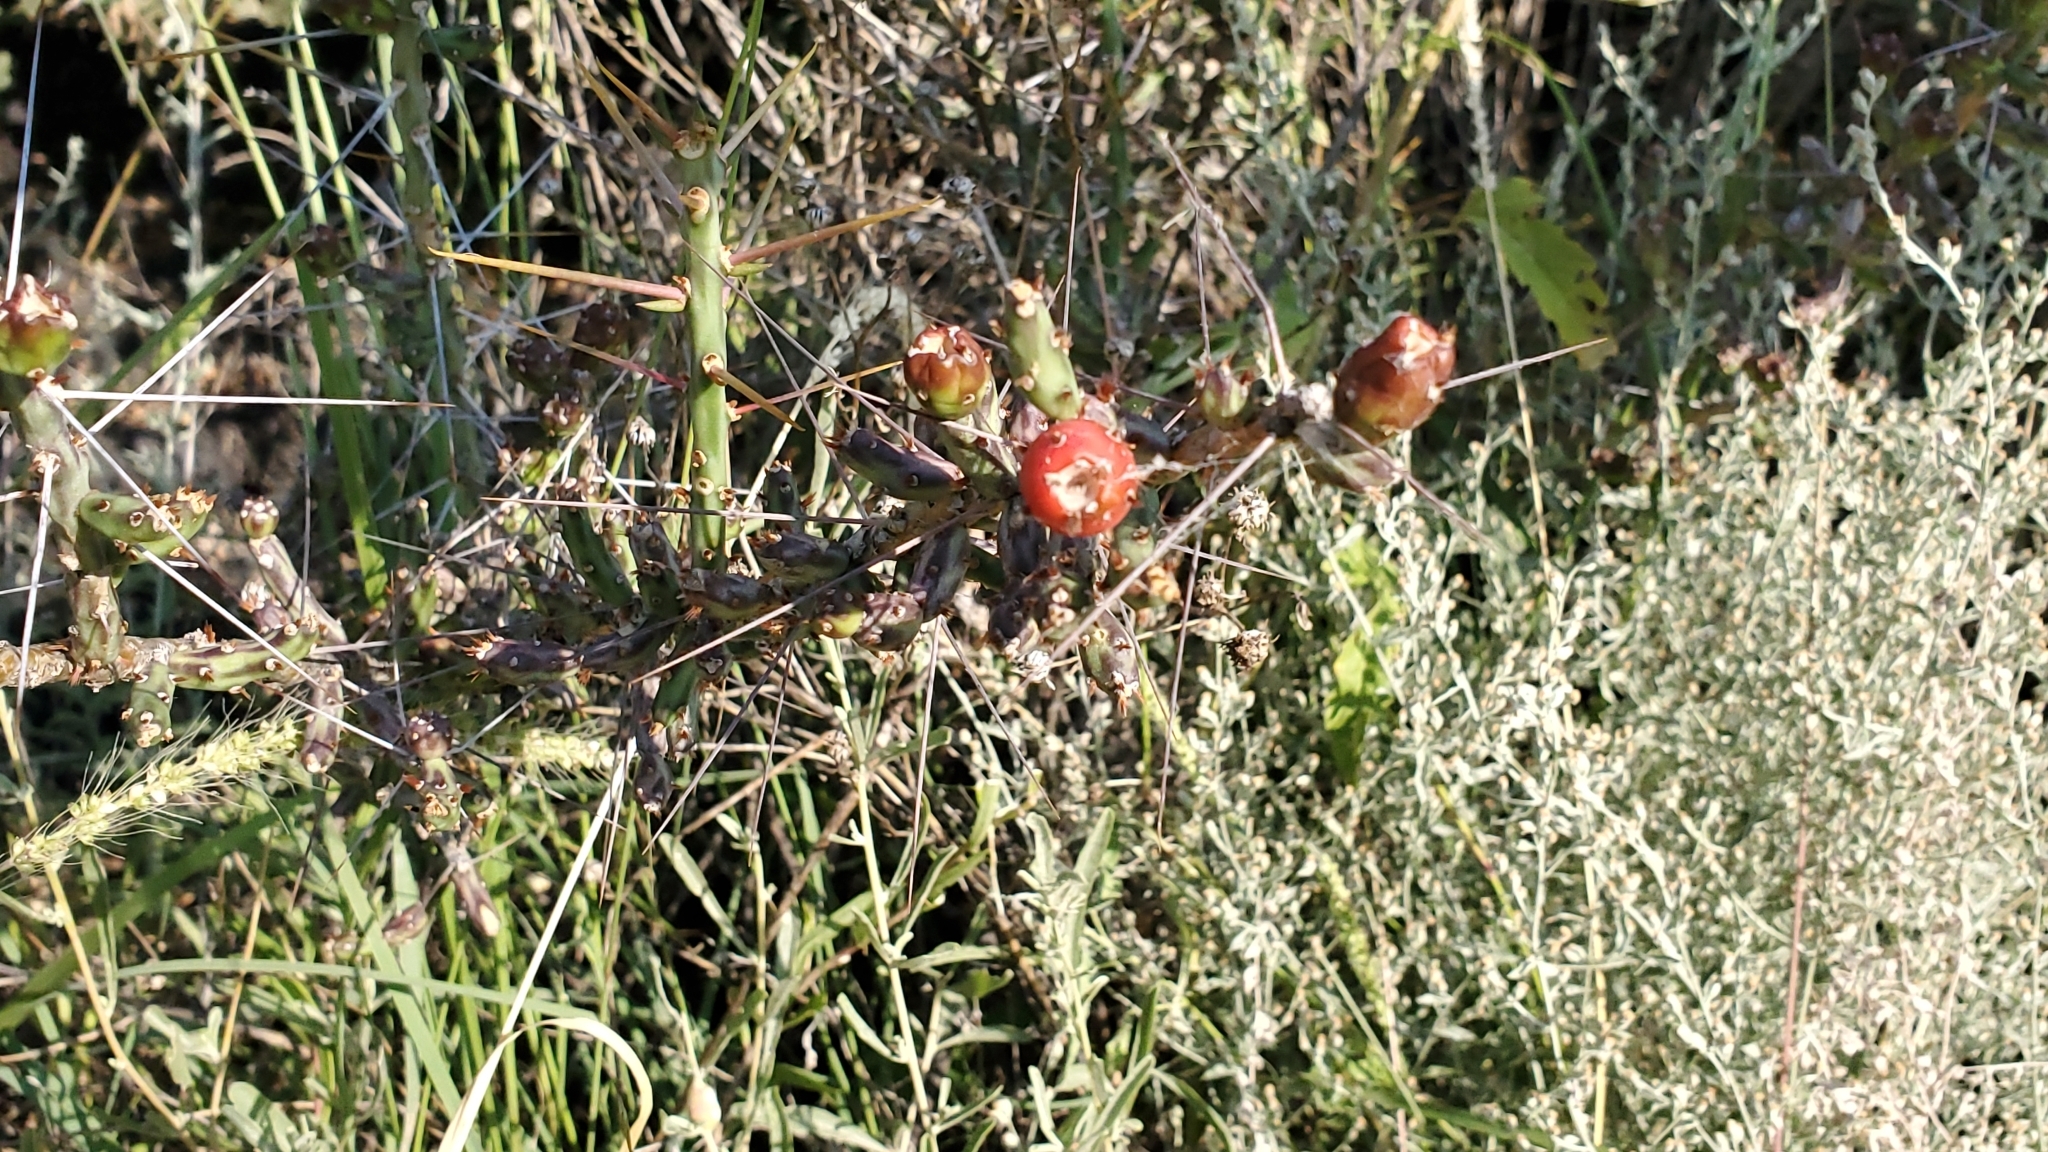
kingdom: Plantae
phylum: Tracheophyta
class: Magnoliopsida
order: Caryophyllales
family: Cactaceae
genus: Cylindropuntia
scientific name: Cylindropuntia leptocaulis
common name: Christmas cactus
